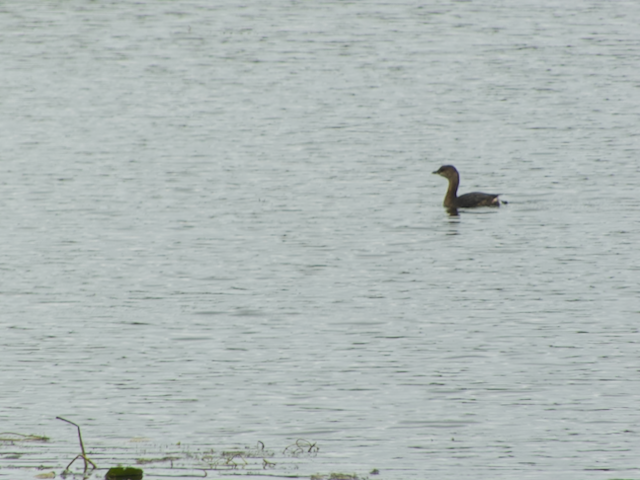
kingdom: Animalia
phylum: Chordata
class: Aves
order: Podicipediformes
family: Podicipedidae
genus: Podilymbus
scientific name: Podilymbus podiceps
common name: Pied-billed grebe
